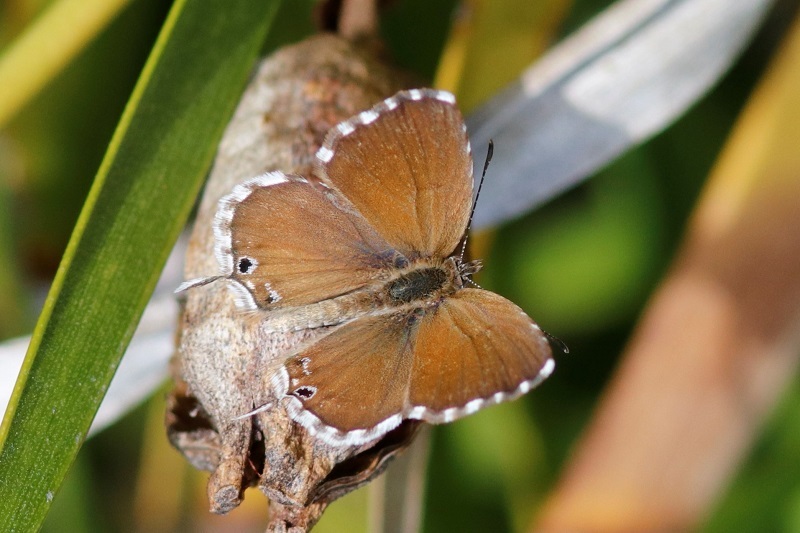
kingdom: Animalia
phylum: Arthropoda
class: Insecta
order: Lepidoptera
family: Lycaenidae
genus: Cacyreus
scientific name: Cacyreus marshalli
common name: Geranium bronze
